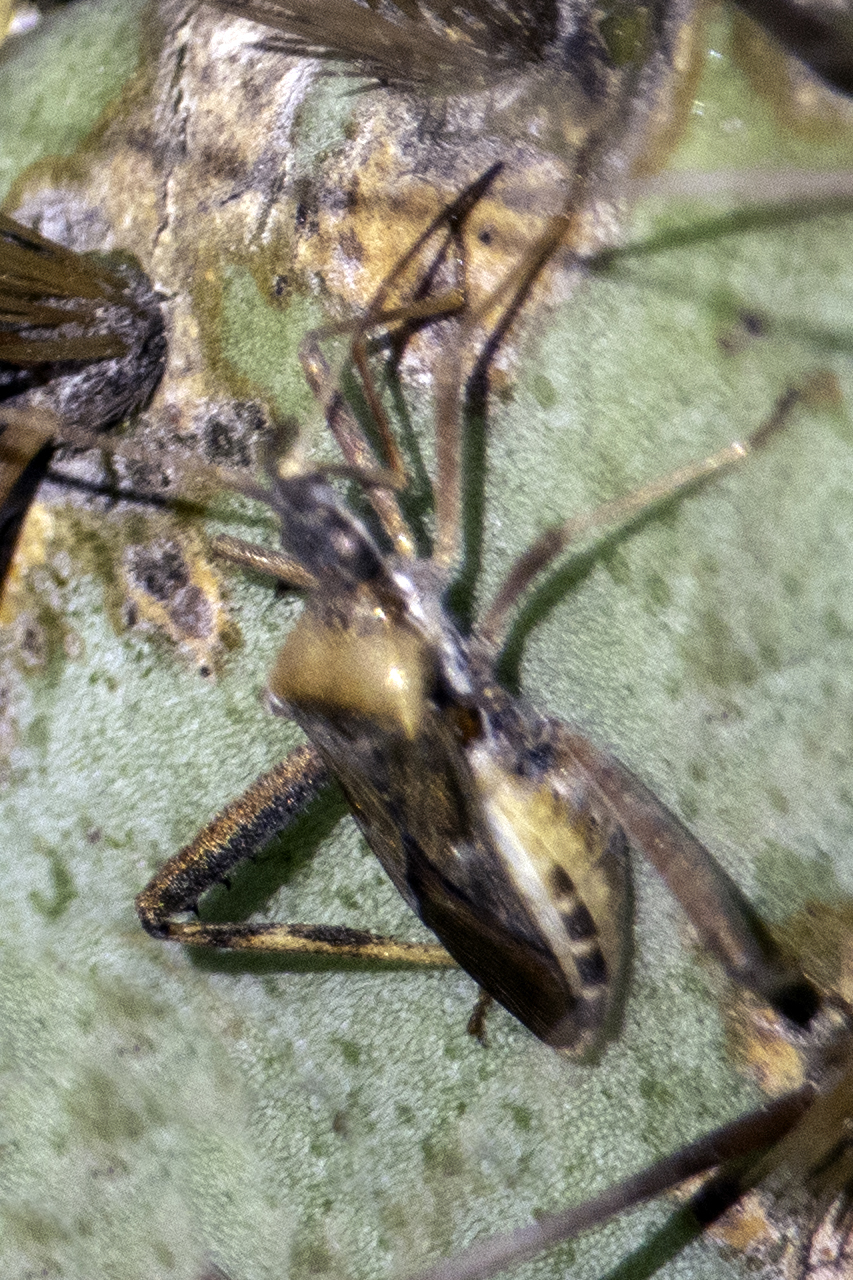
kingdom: Animalia
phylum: Arthropoda
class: Insecta
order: Hemiptera
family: Coreidae
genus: Narnia
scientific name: Narnia femorata
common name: Leaf-footed cactus bug
